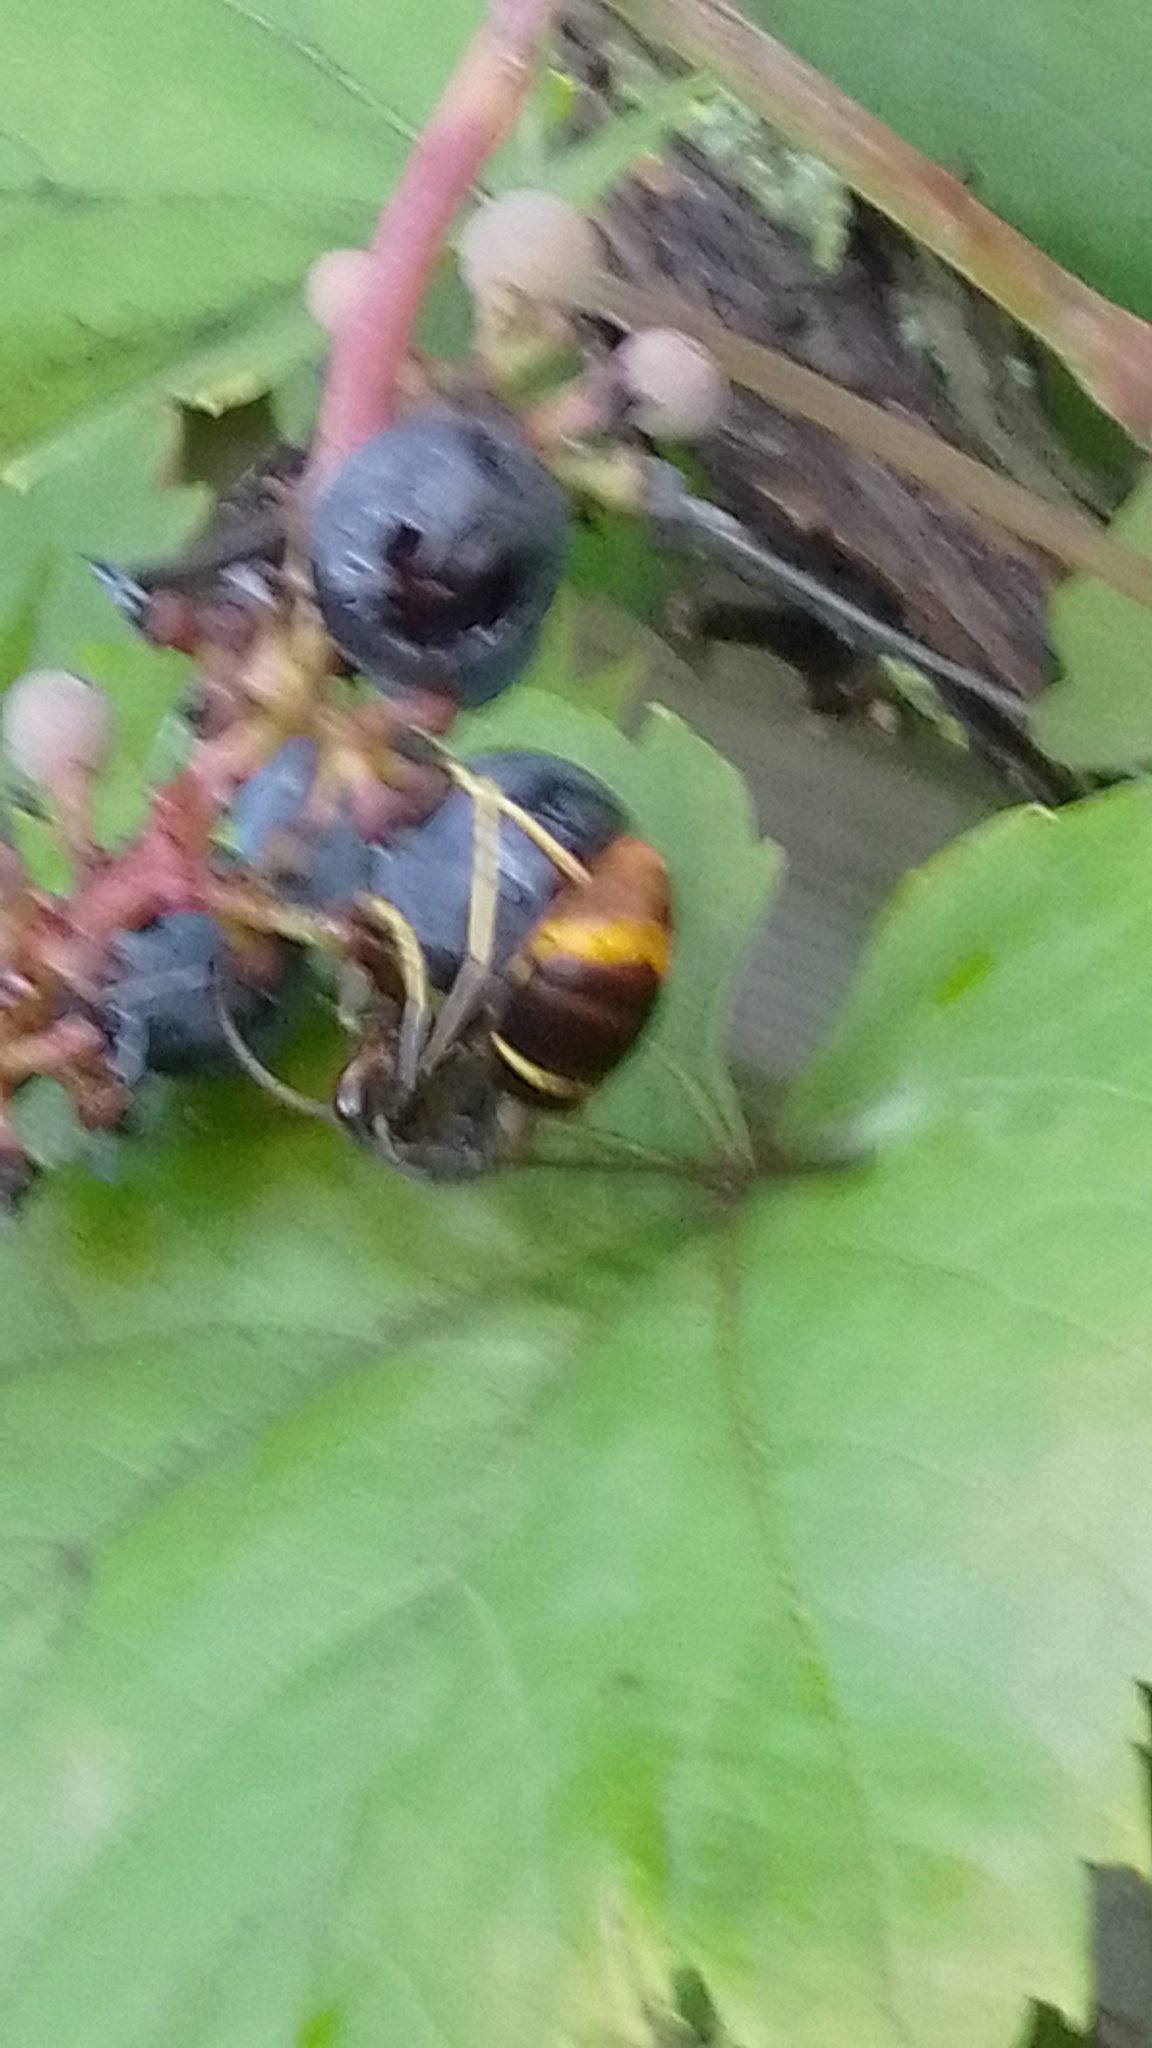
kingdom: Animalia
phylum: Arthropoda
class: Insecta
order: Hymenoptera
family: Vespidae
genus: Vespa
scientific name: Vespa velutina
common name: Asian hornet
